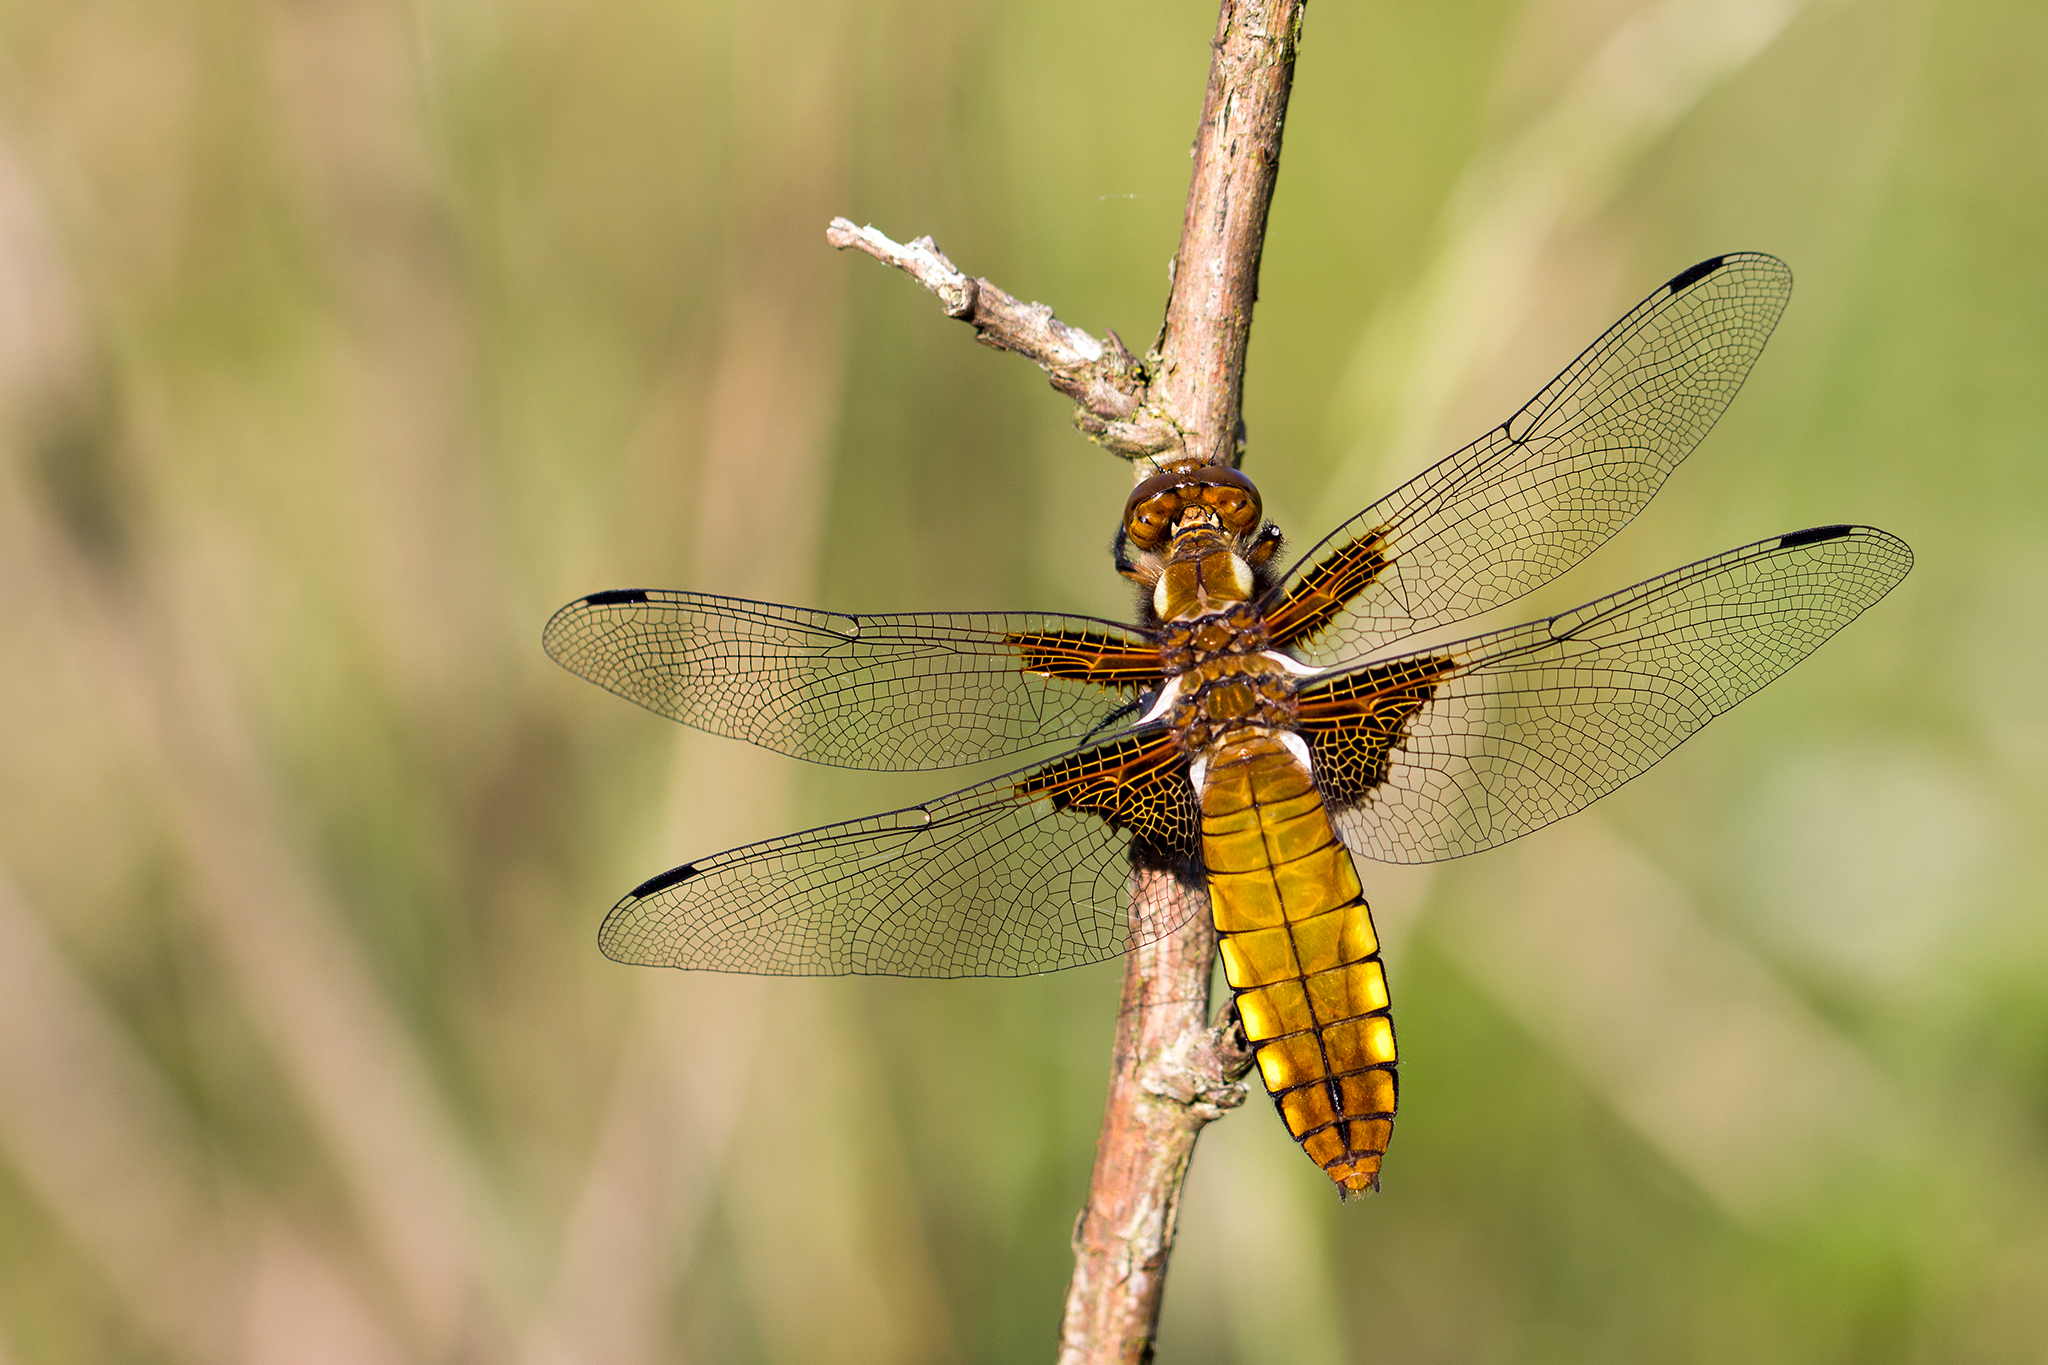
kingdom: Animalia
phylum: Arthropoda
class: Insecta
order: Odonata
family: Libellulidae
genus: Libellula
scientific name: Libellula depressa
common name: Broad-bodied chaser
